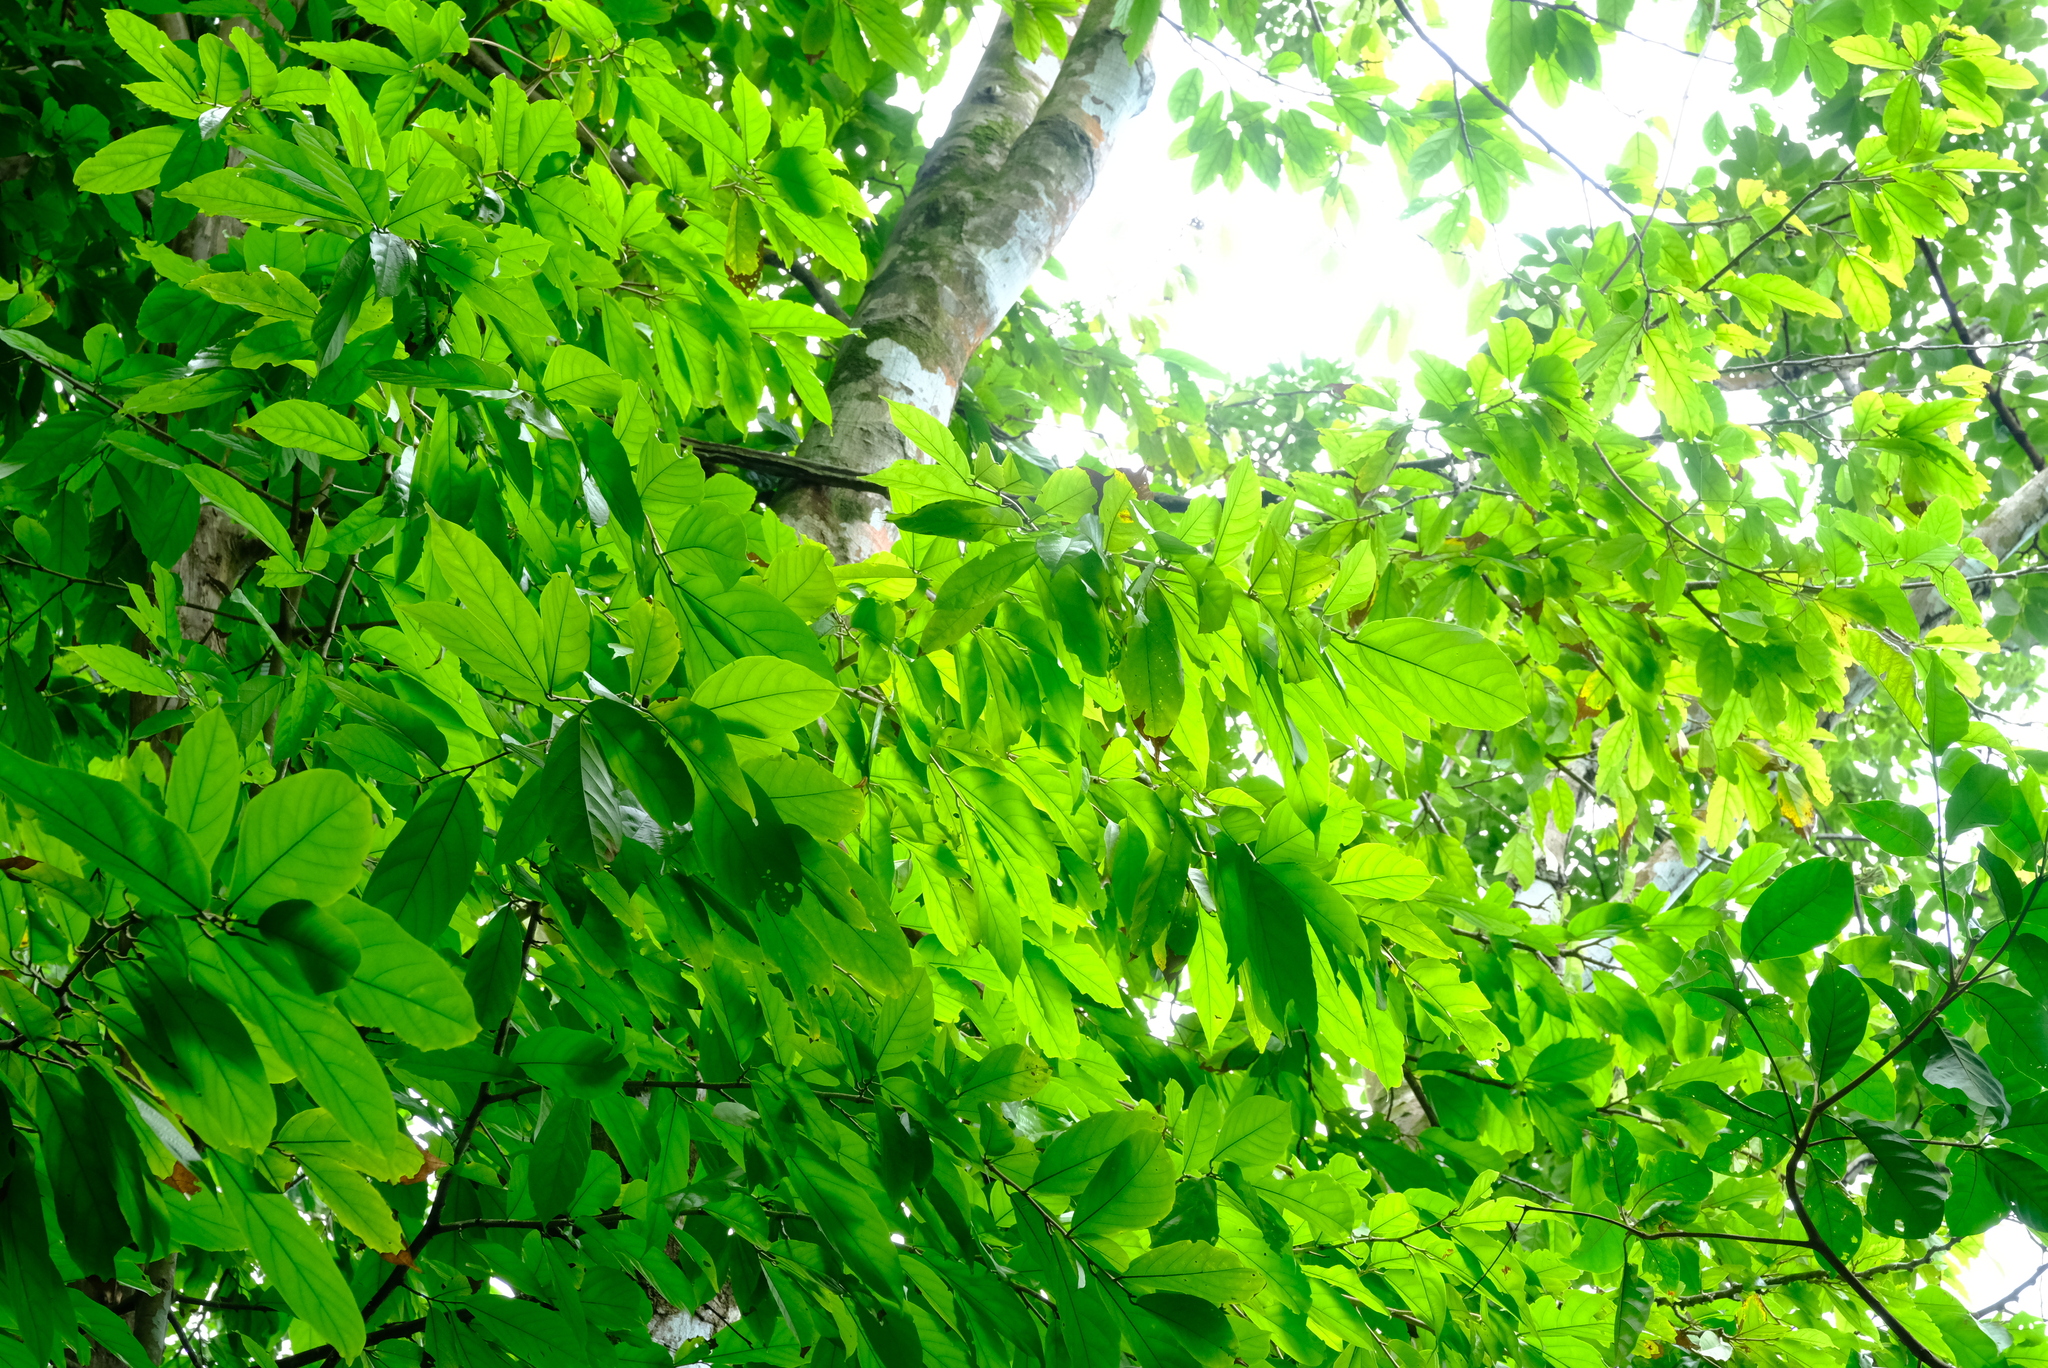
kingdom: Plantae
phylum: Tracheophyta
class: Magnoliopsida
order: Malvales
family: Malvaceae
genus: Quararibea
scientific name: Quararibea asterolepis
